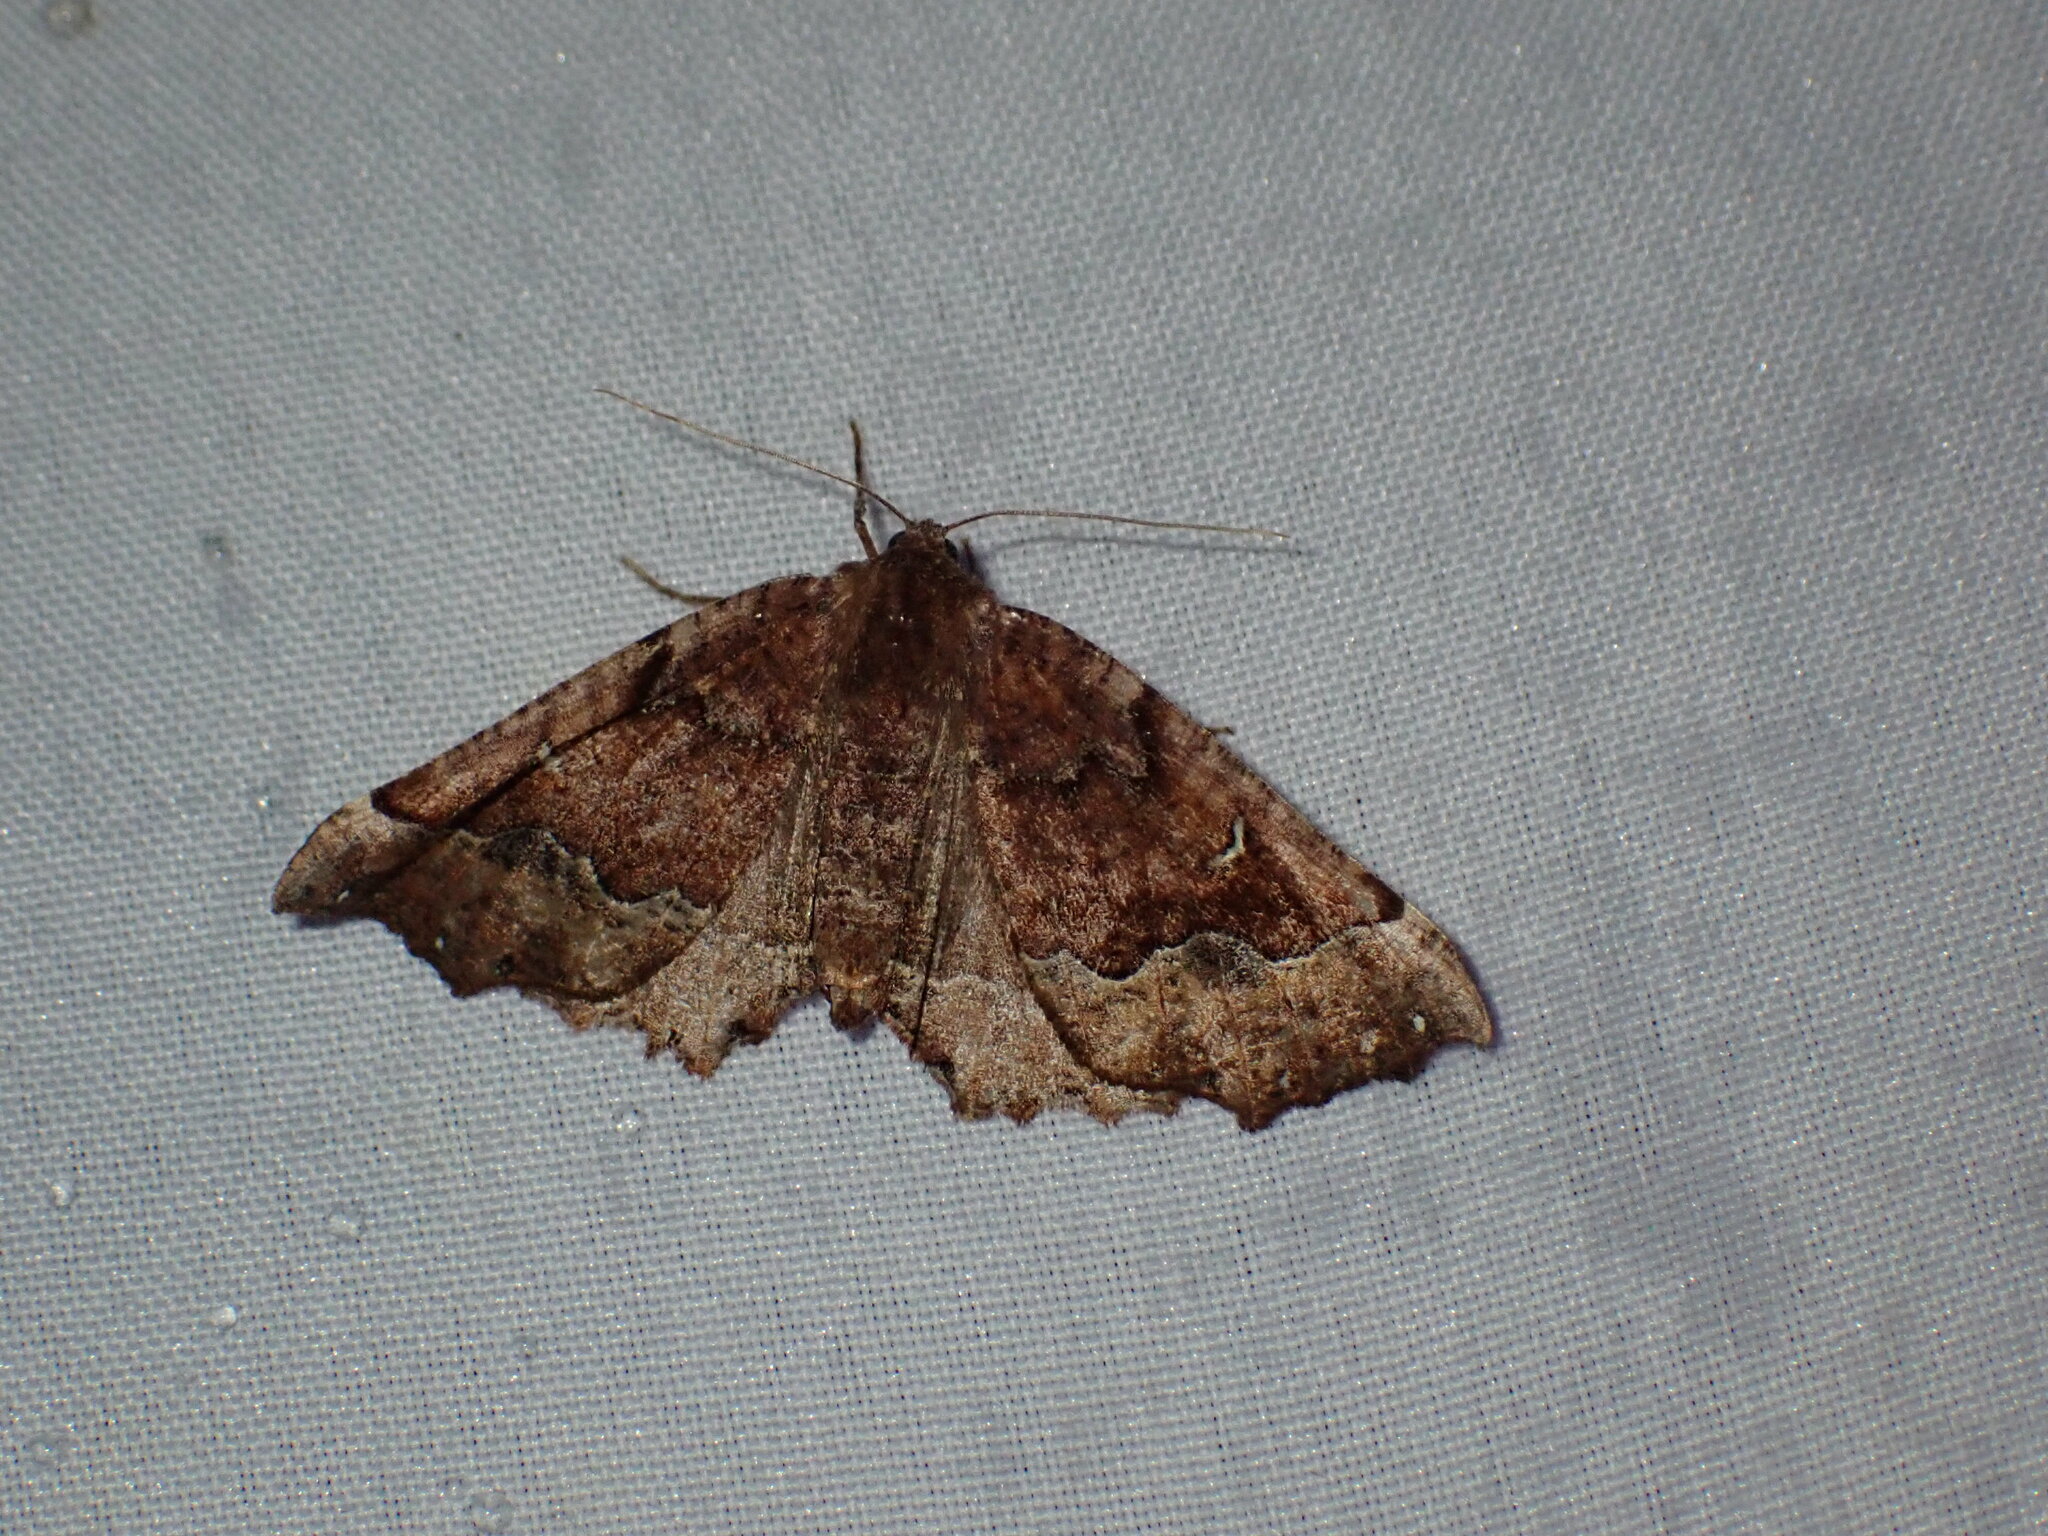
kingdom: Animalia
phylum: Arthropoda
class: Insecta
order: Lepidoptera
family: Geometridae
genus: Pero
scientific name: Pero morrisonaria
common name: Morrison's pero
